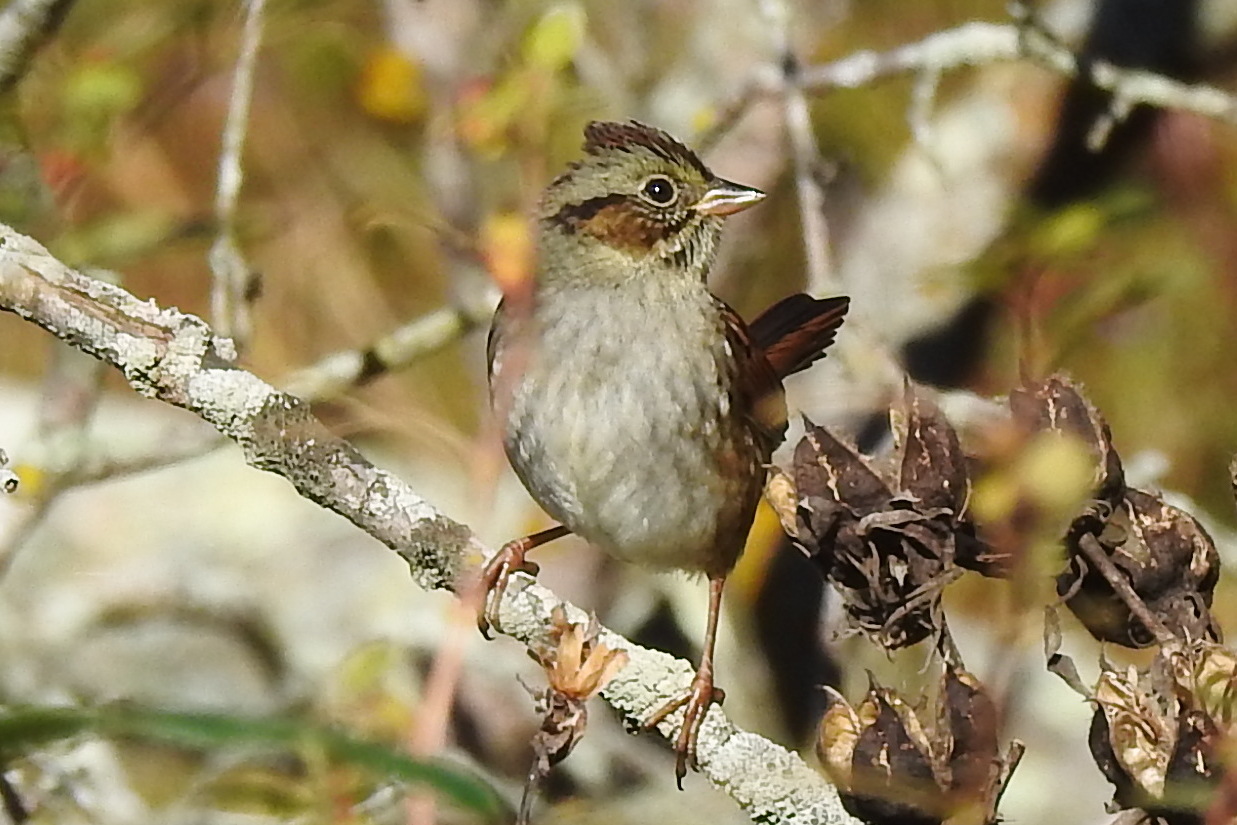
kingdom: Animalia
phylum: Chordata
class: Aves
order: Passeriformes
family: Passerellidae
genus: Melospiza
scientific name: Melospiza georgiana
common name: Swamp sparrow
